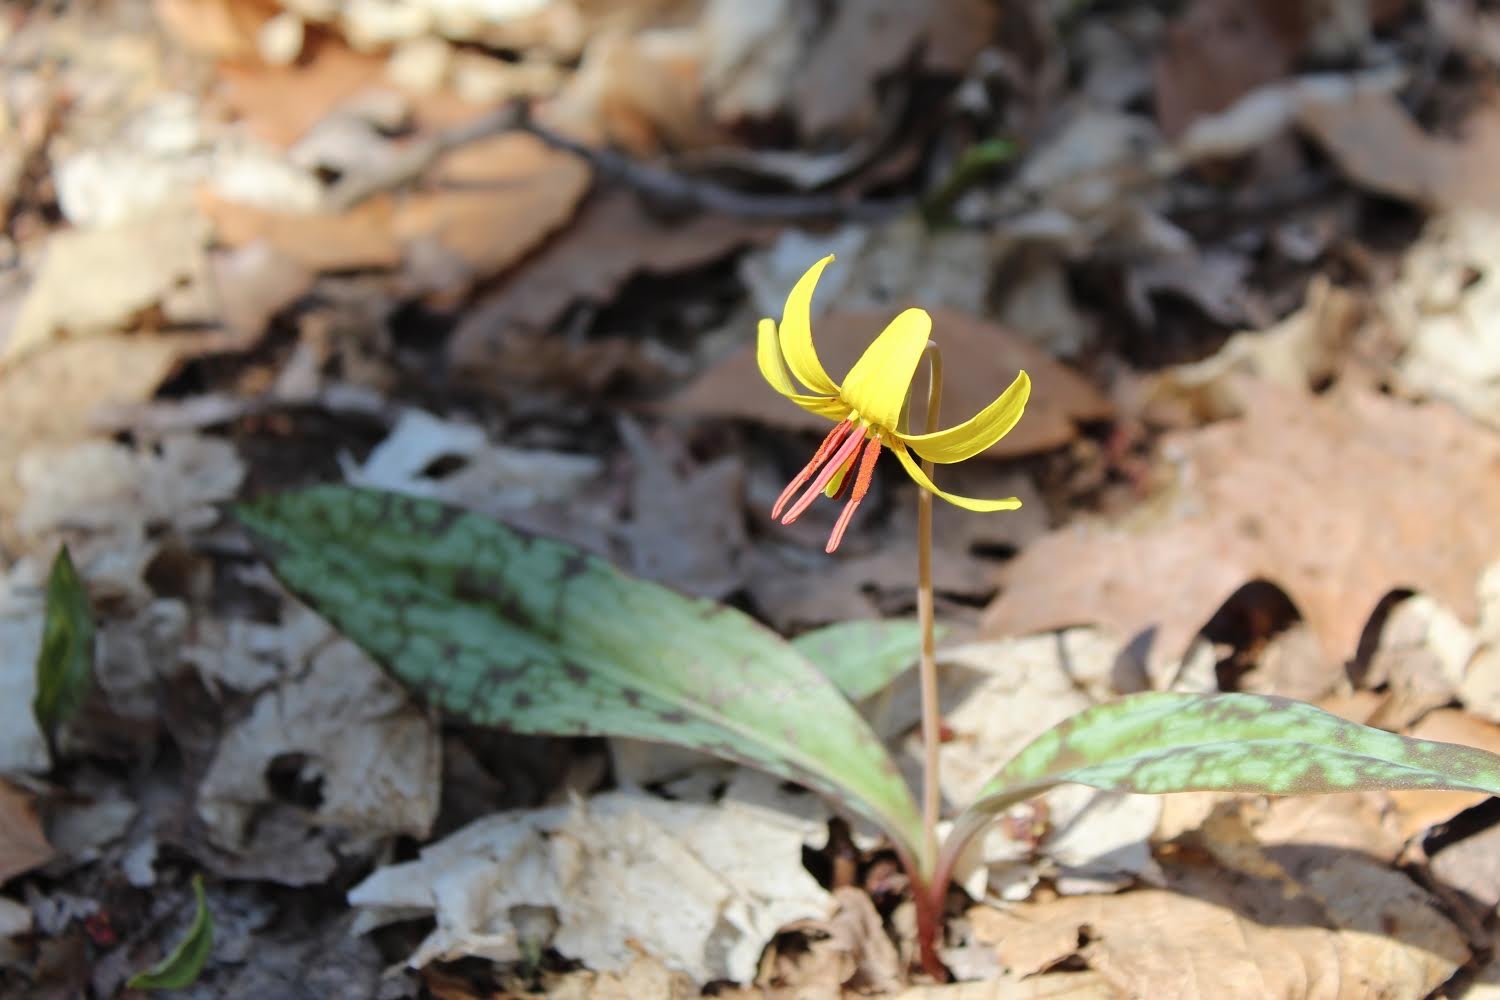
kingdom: Plantae
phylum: Tracheophyta
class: Liliopsida
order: Liliales
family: Liliaceae
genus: Erythronium
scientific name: Erythronium americanum
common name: Yellow adder's-tongue
